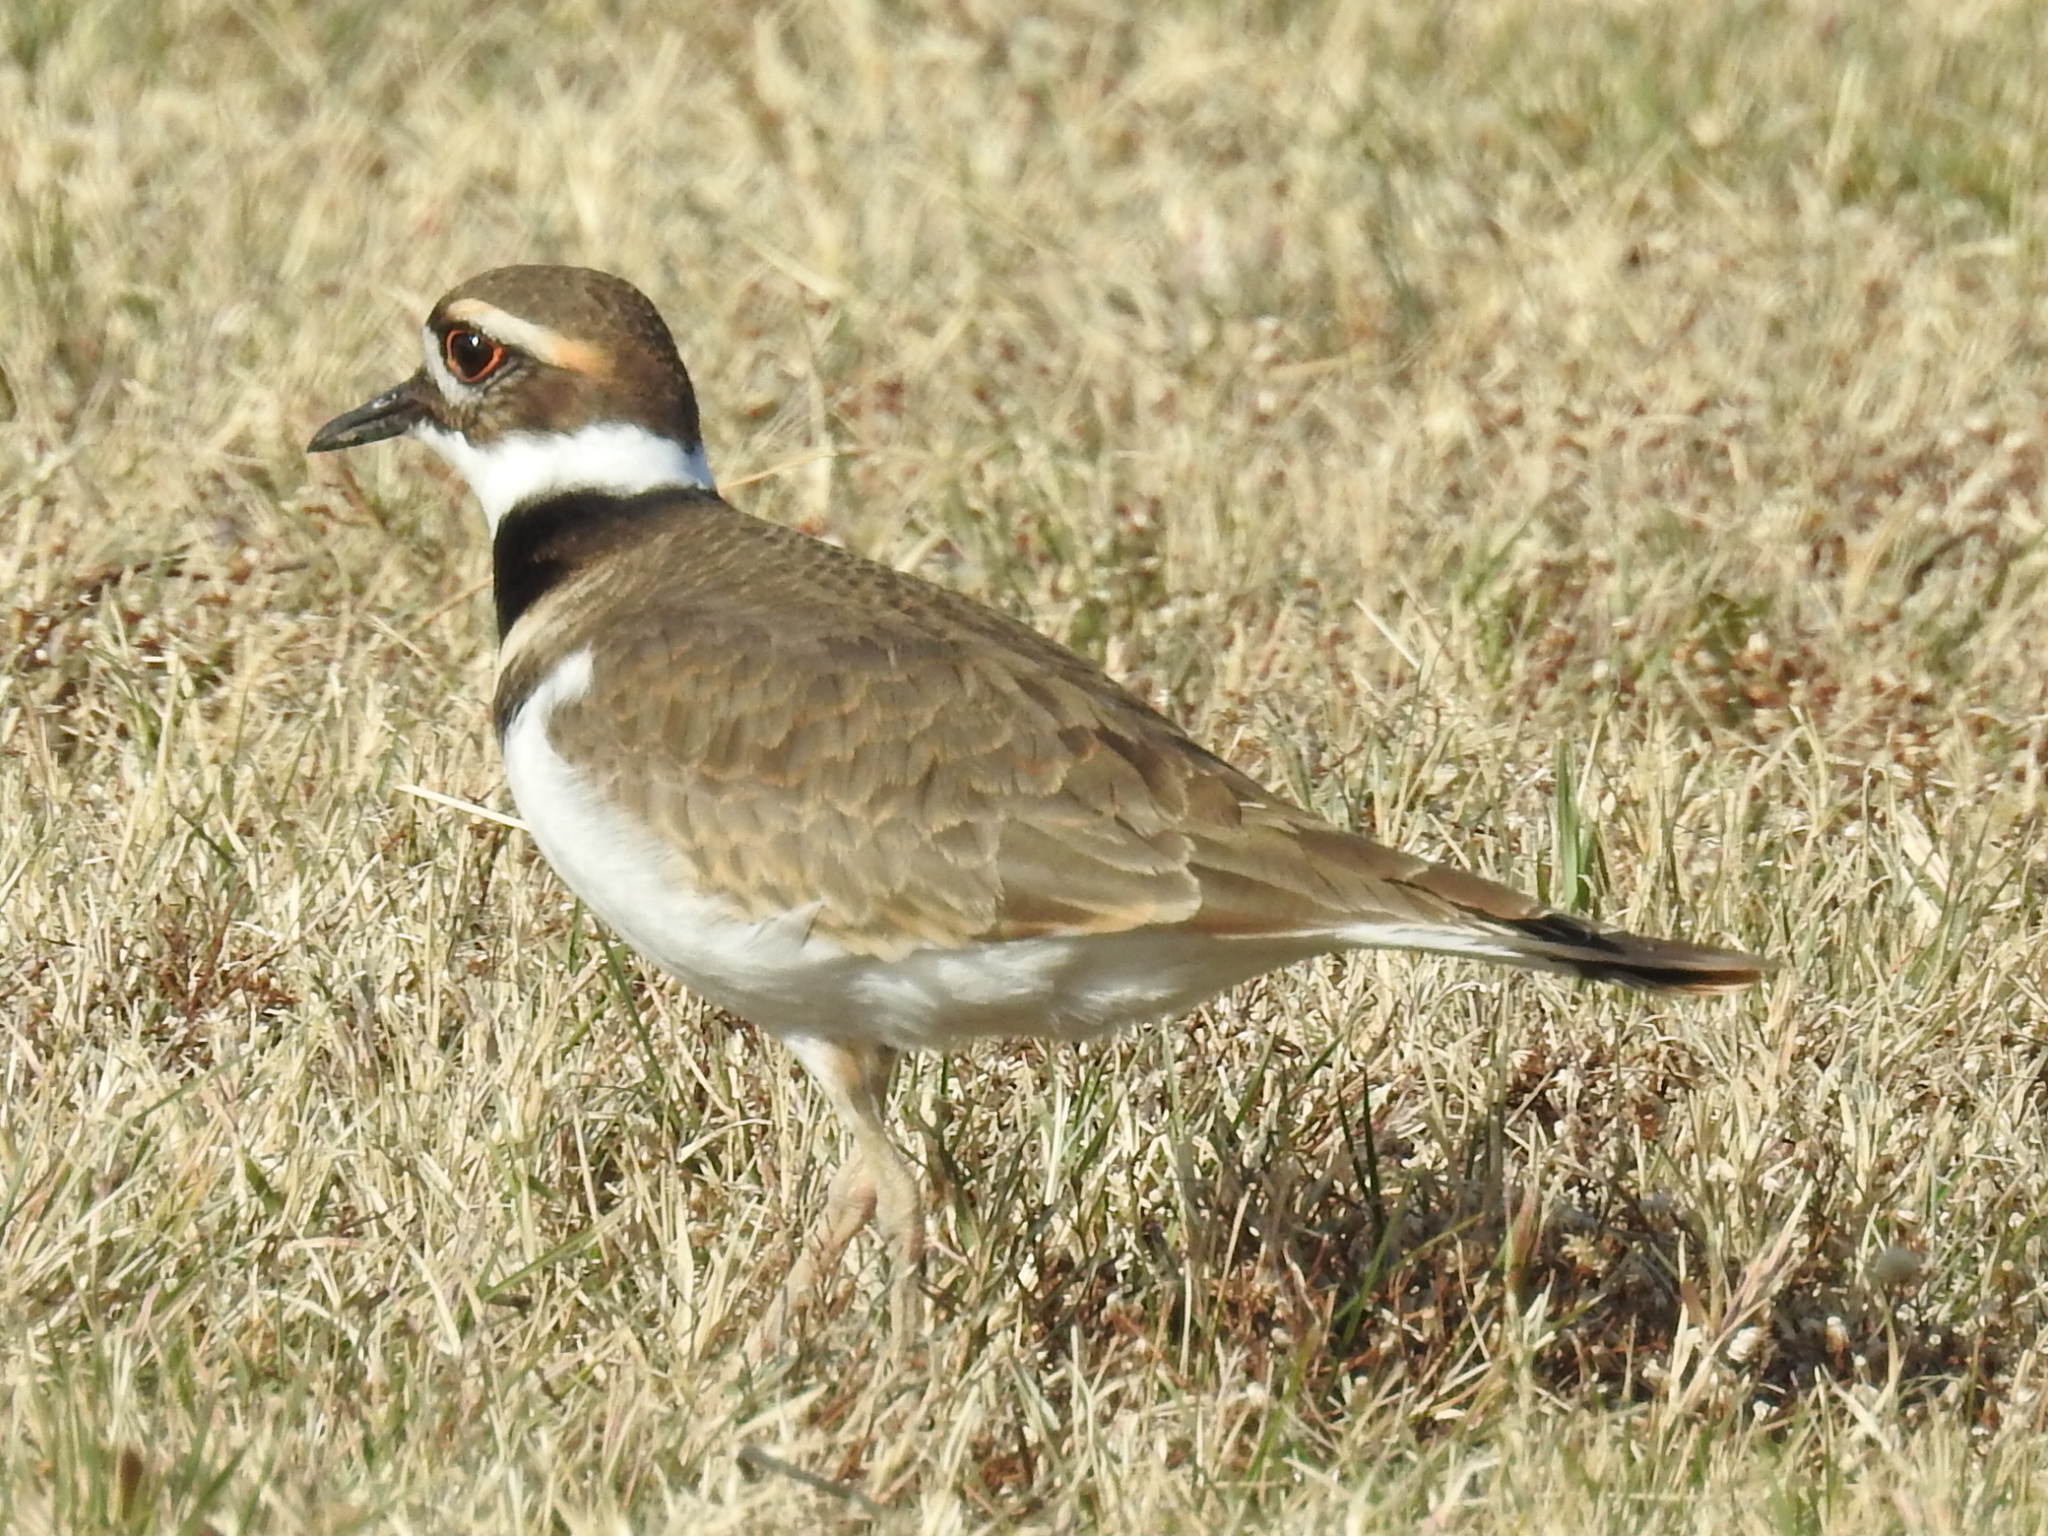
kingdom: Animalia
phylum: Chordata
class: Aves
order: Charadriiformes
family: Charadriidae
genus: Charadrius
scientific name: Charadrius vociferus
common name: Killdeer
